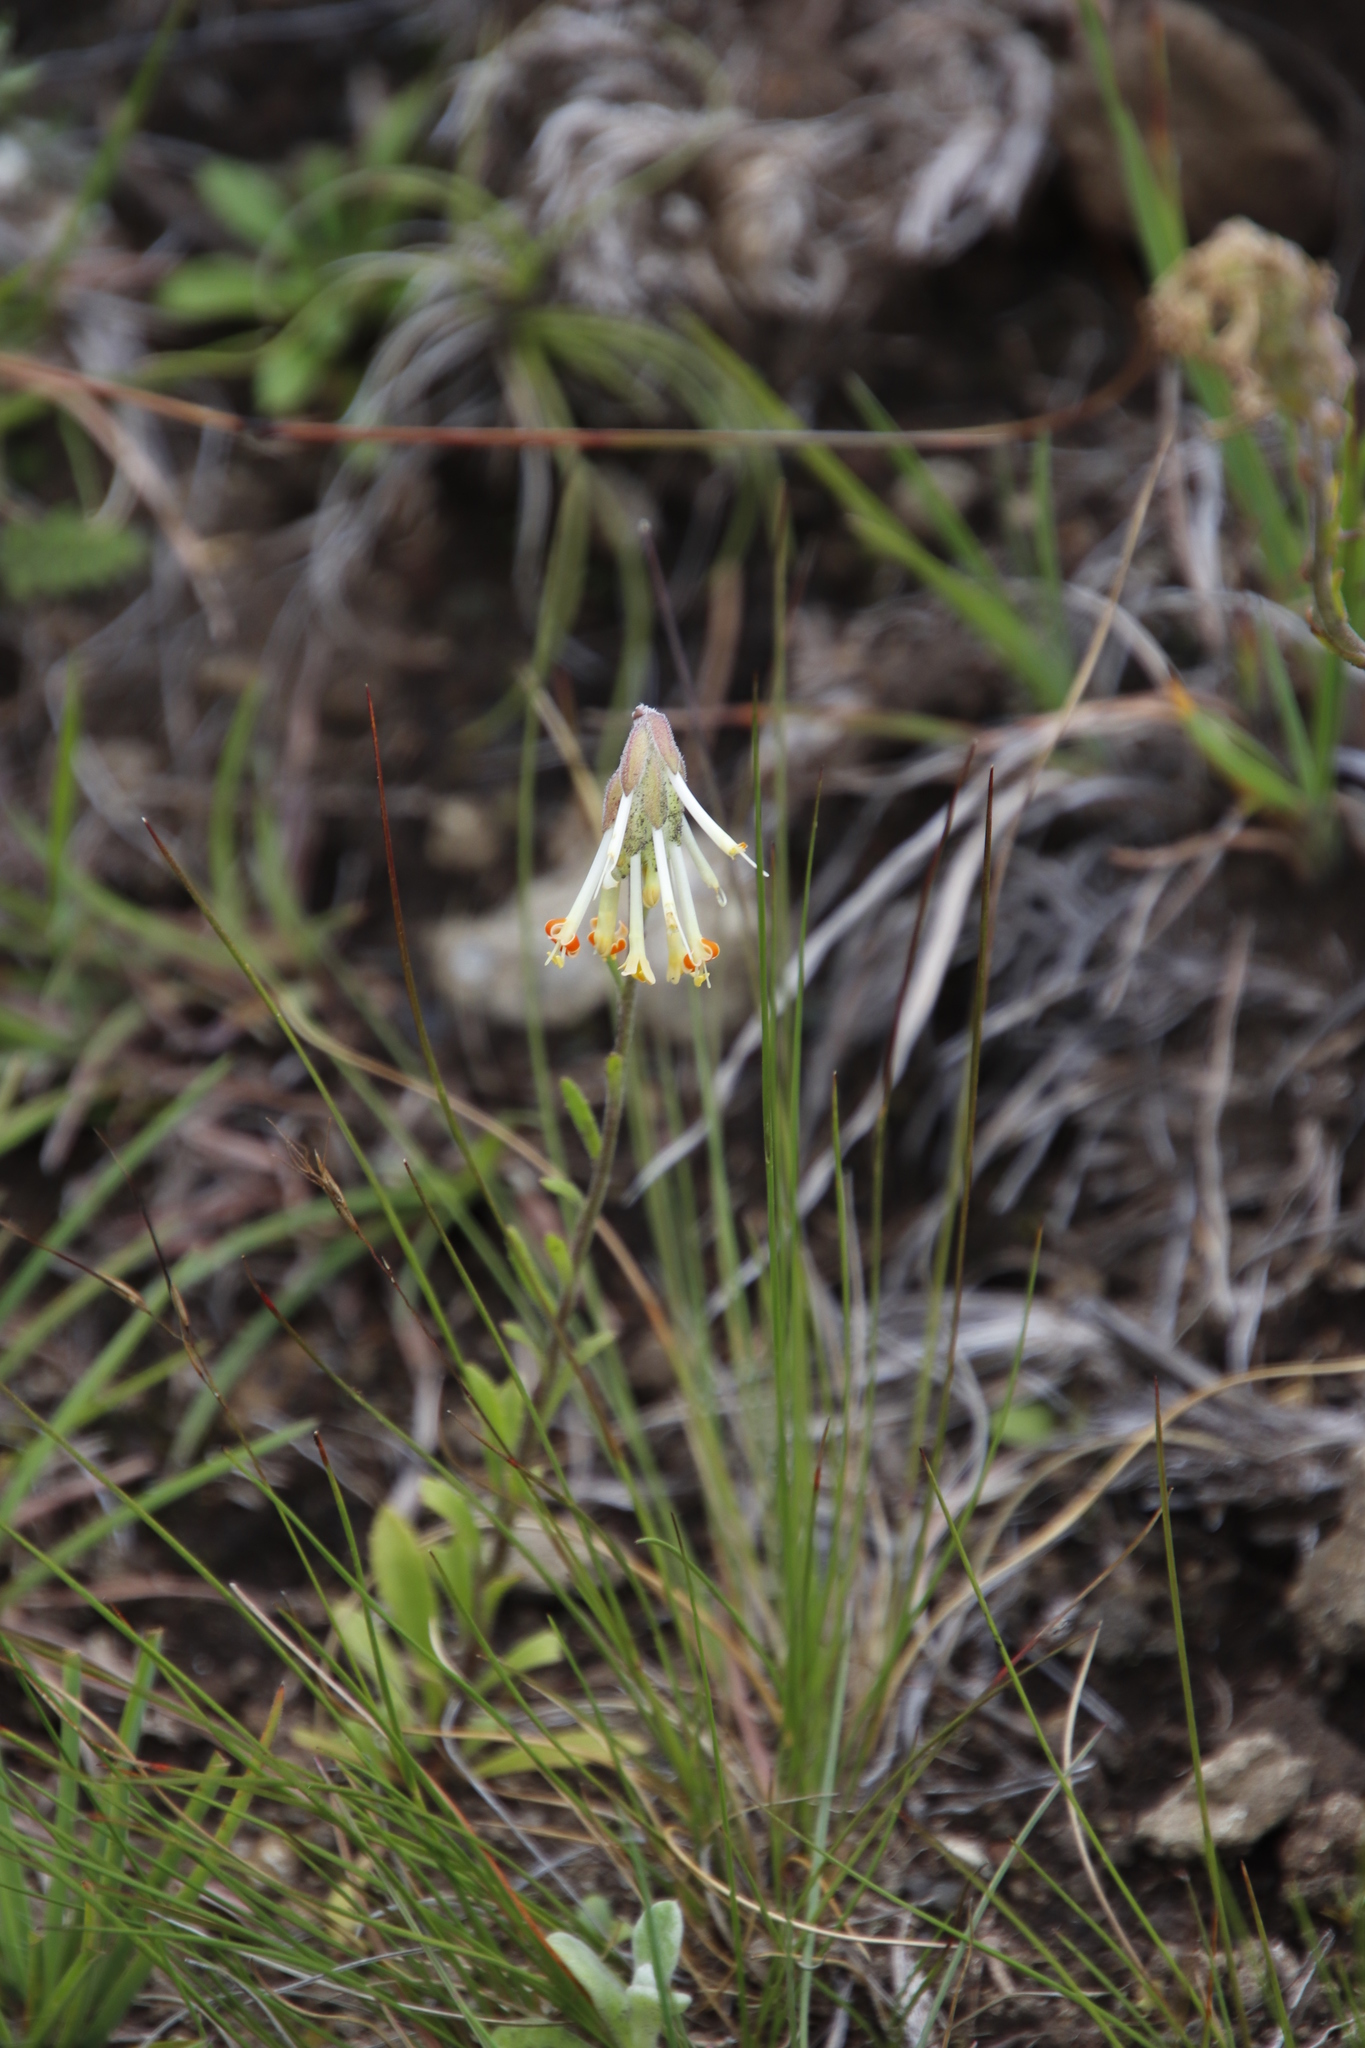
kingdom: Plantae
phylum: Tracheophyta
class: Magnoliopsida
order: Lamiales
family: Scrophulariaceae
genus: Glumicalyx
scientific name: Glumicalyx nutans
